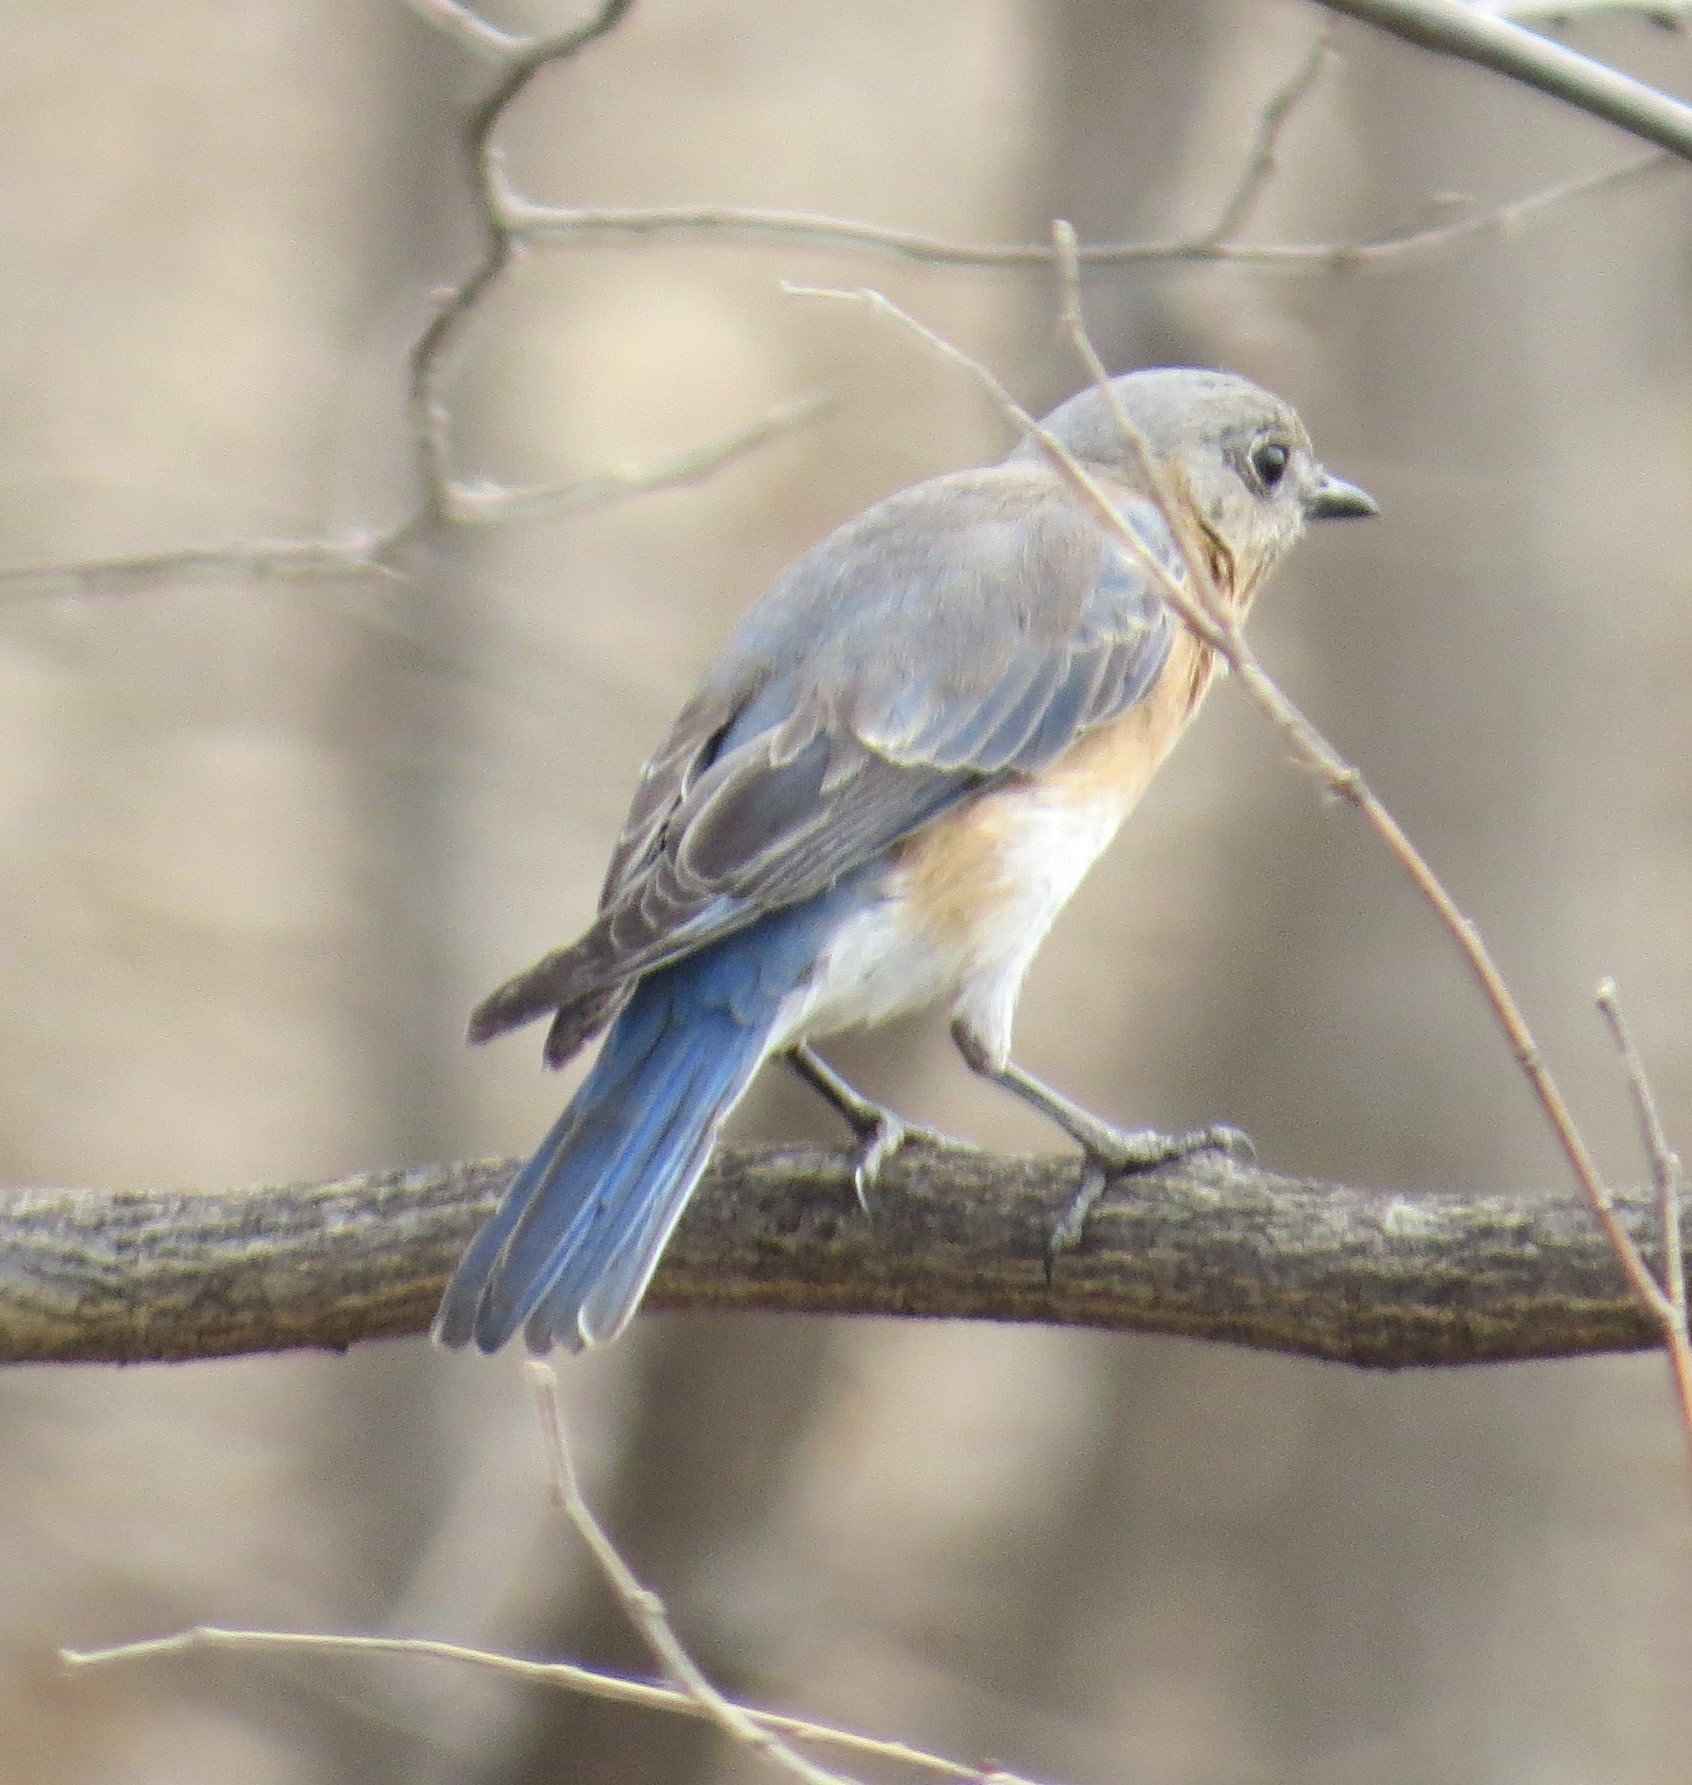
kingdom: Animalia
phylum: Chordata
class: Aves
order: Passeriformes
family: Turdidae
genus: Sialia
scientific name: Sialia sialis
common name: Eastern bluebird
